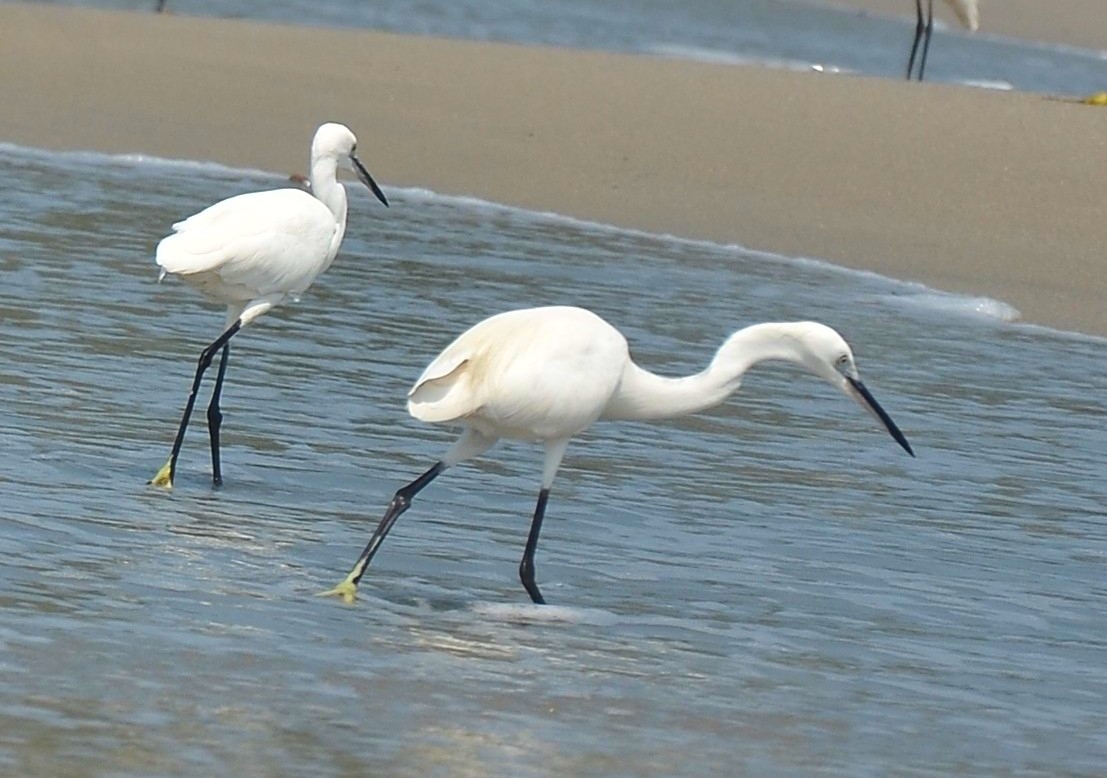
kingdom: Animalia
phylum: Chordata
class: Aves
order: Pelecaniformes
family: Ardeidae
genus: Egretta
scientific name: Egretta garzetta
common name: Little egret
